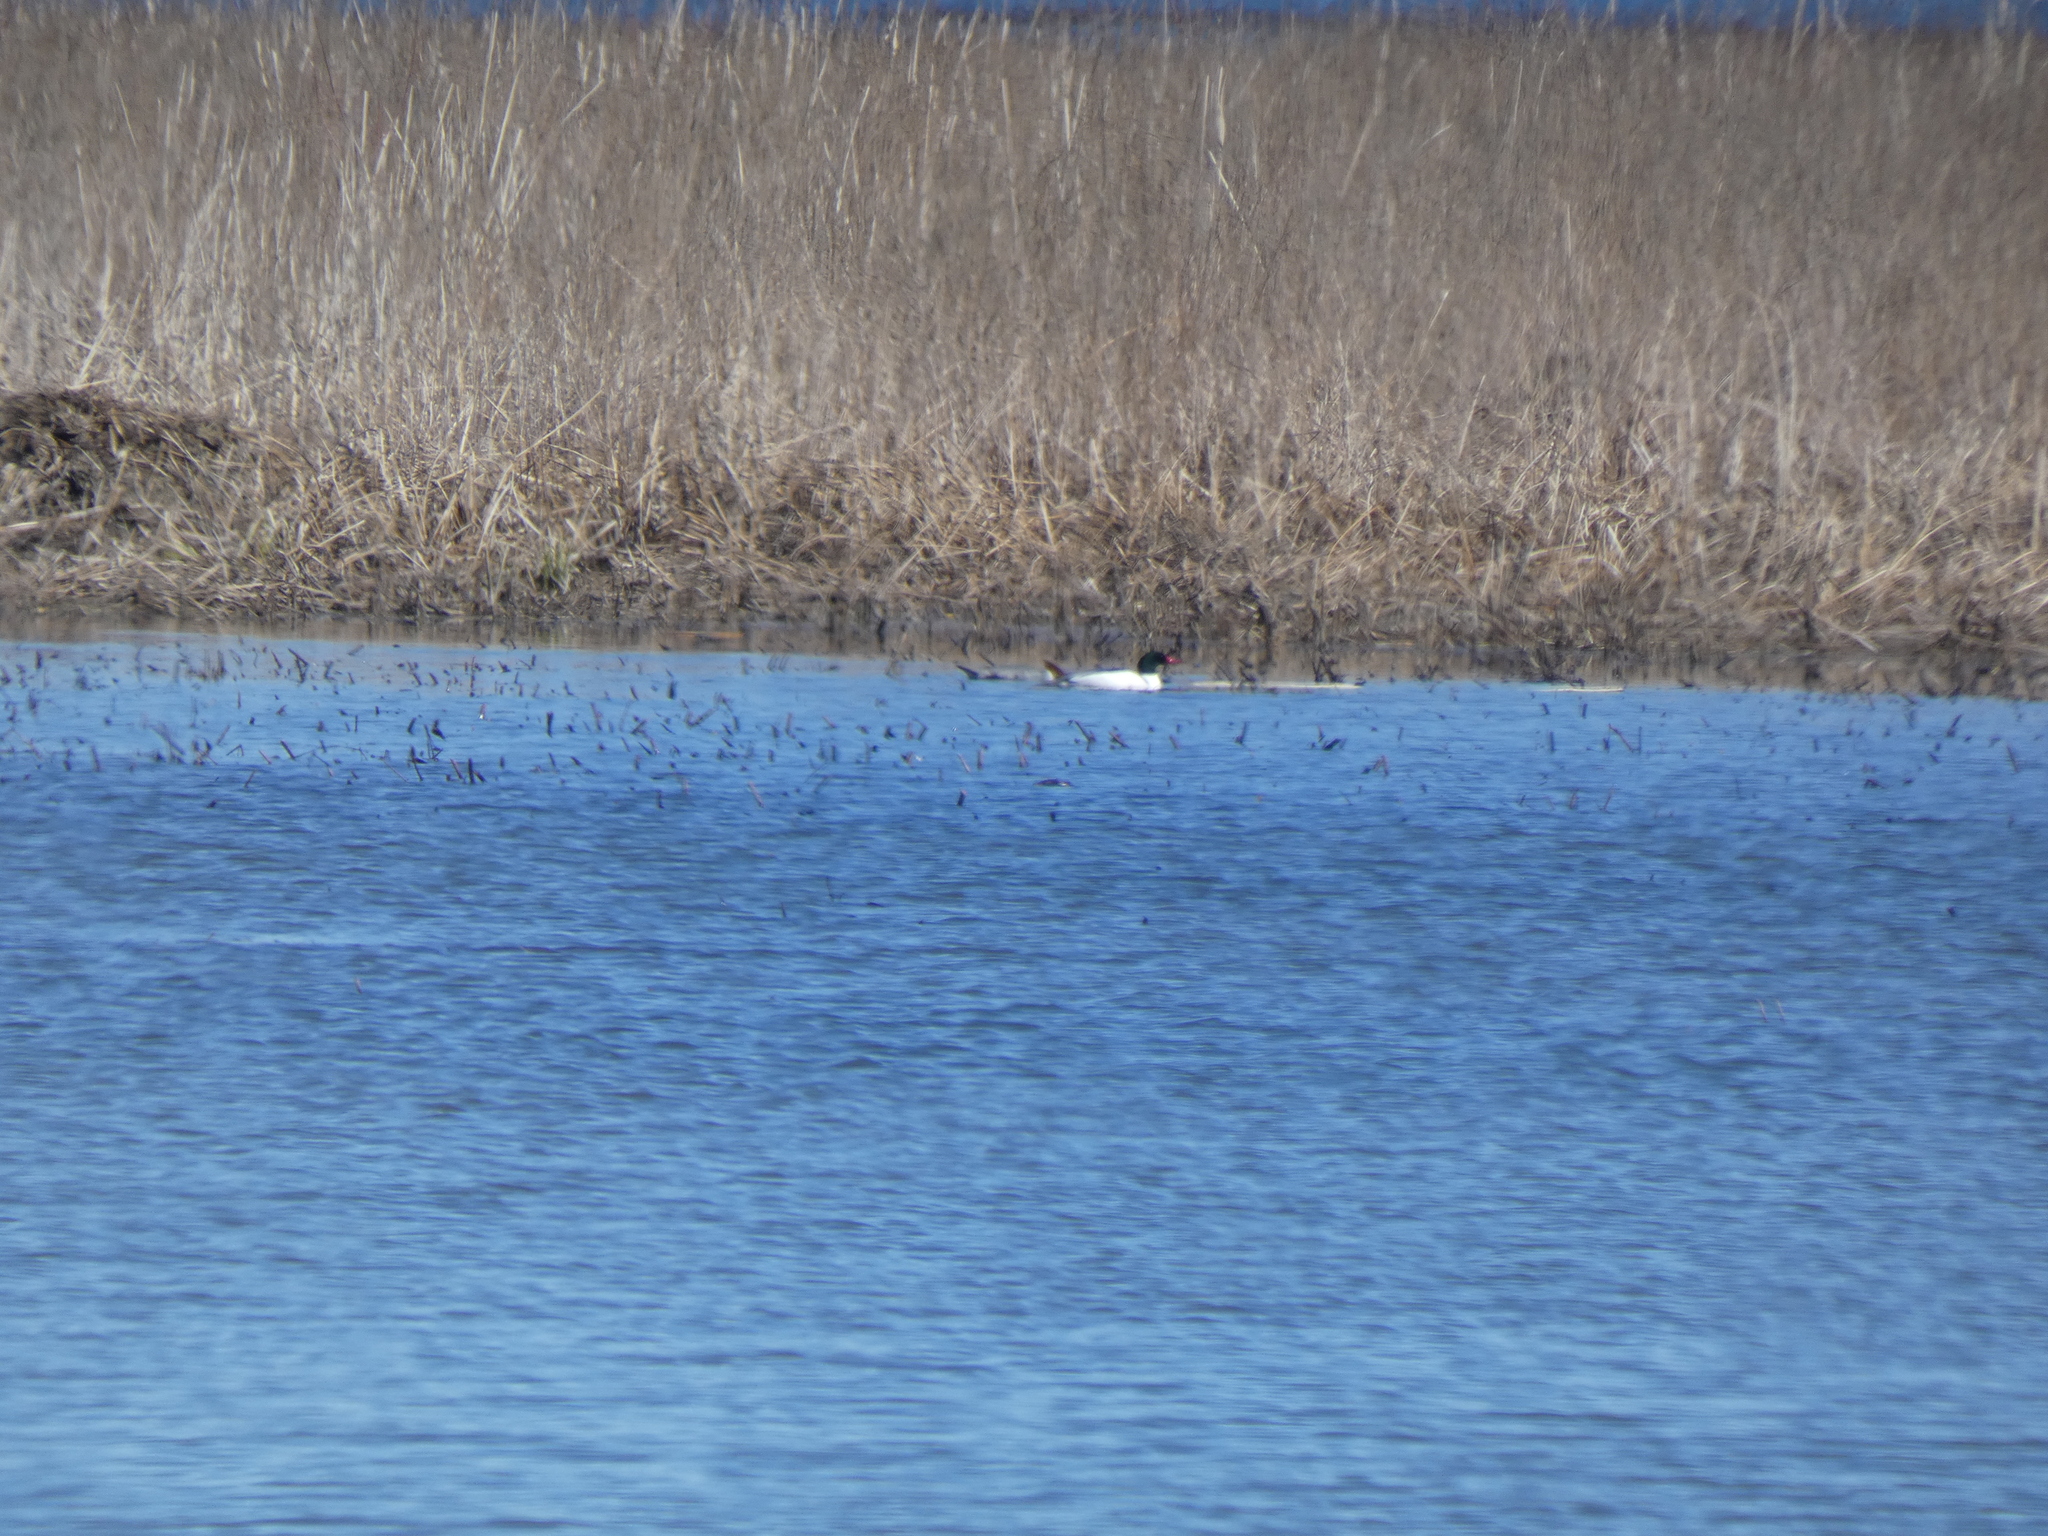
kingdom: Animalia
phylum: Chordata
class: Aves
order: Anseriformes
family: Anatidae
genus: Mergus
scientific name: Mergus merganser
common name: Common merganser
